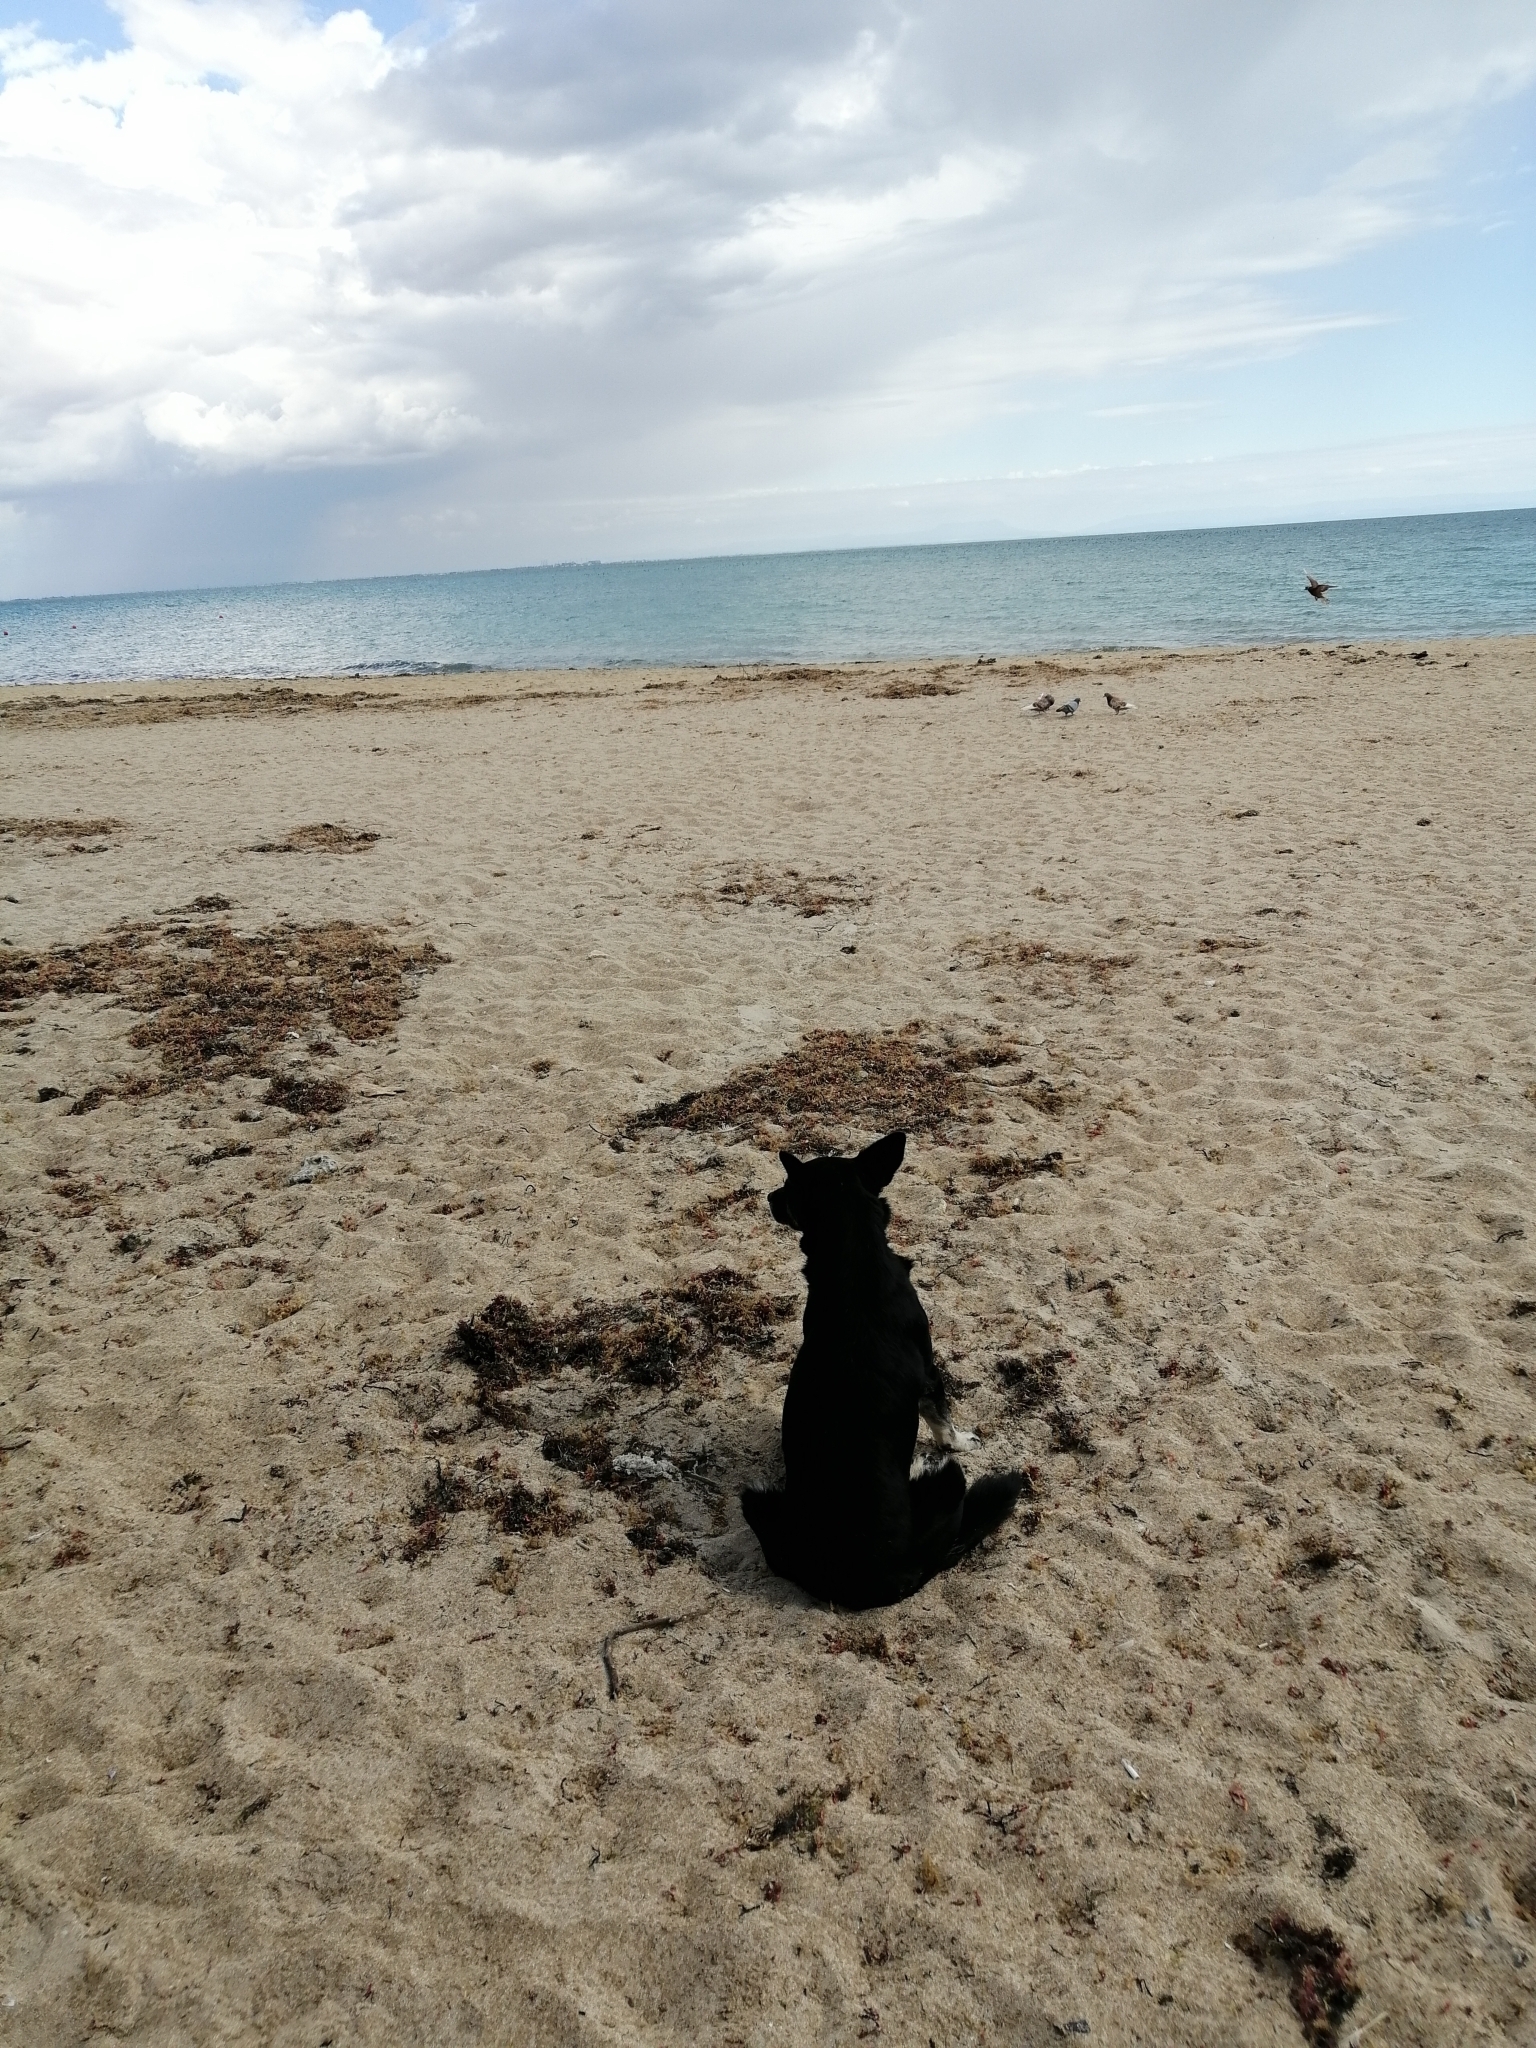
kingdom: Animalia
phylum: Chordata
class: Mammalia
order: Carnivora
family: Canidae
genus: Canis
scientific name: Canis lupus
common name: Gray wolf
